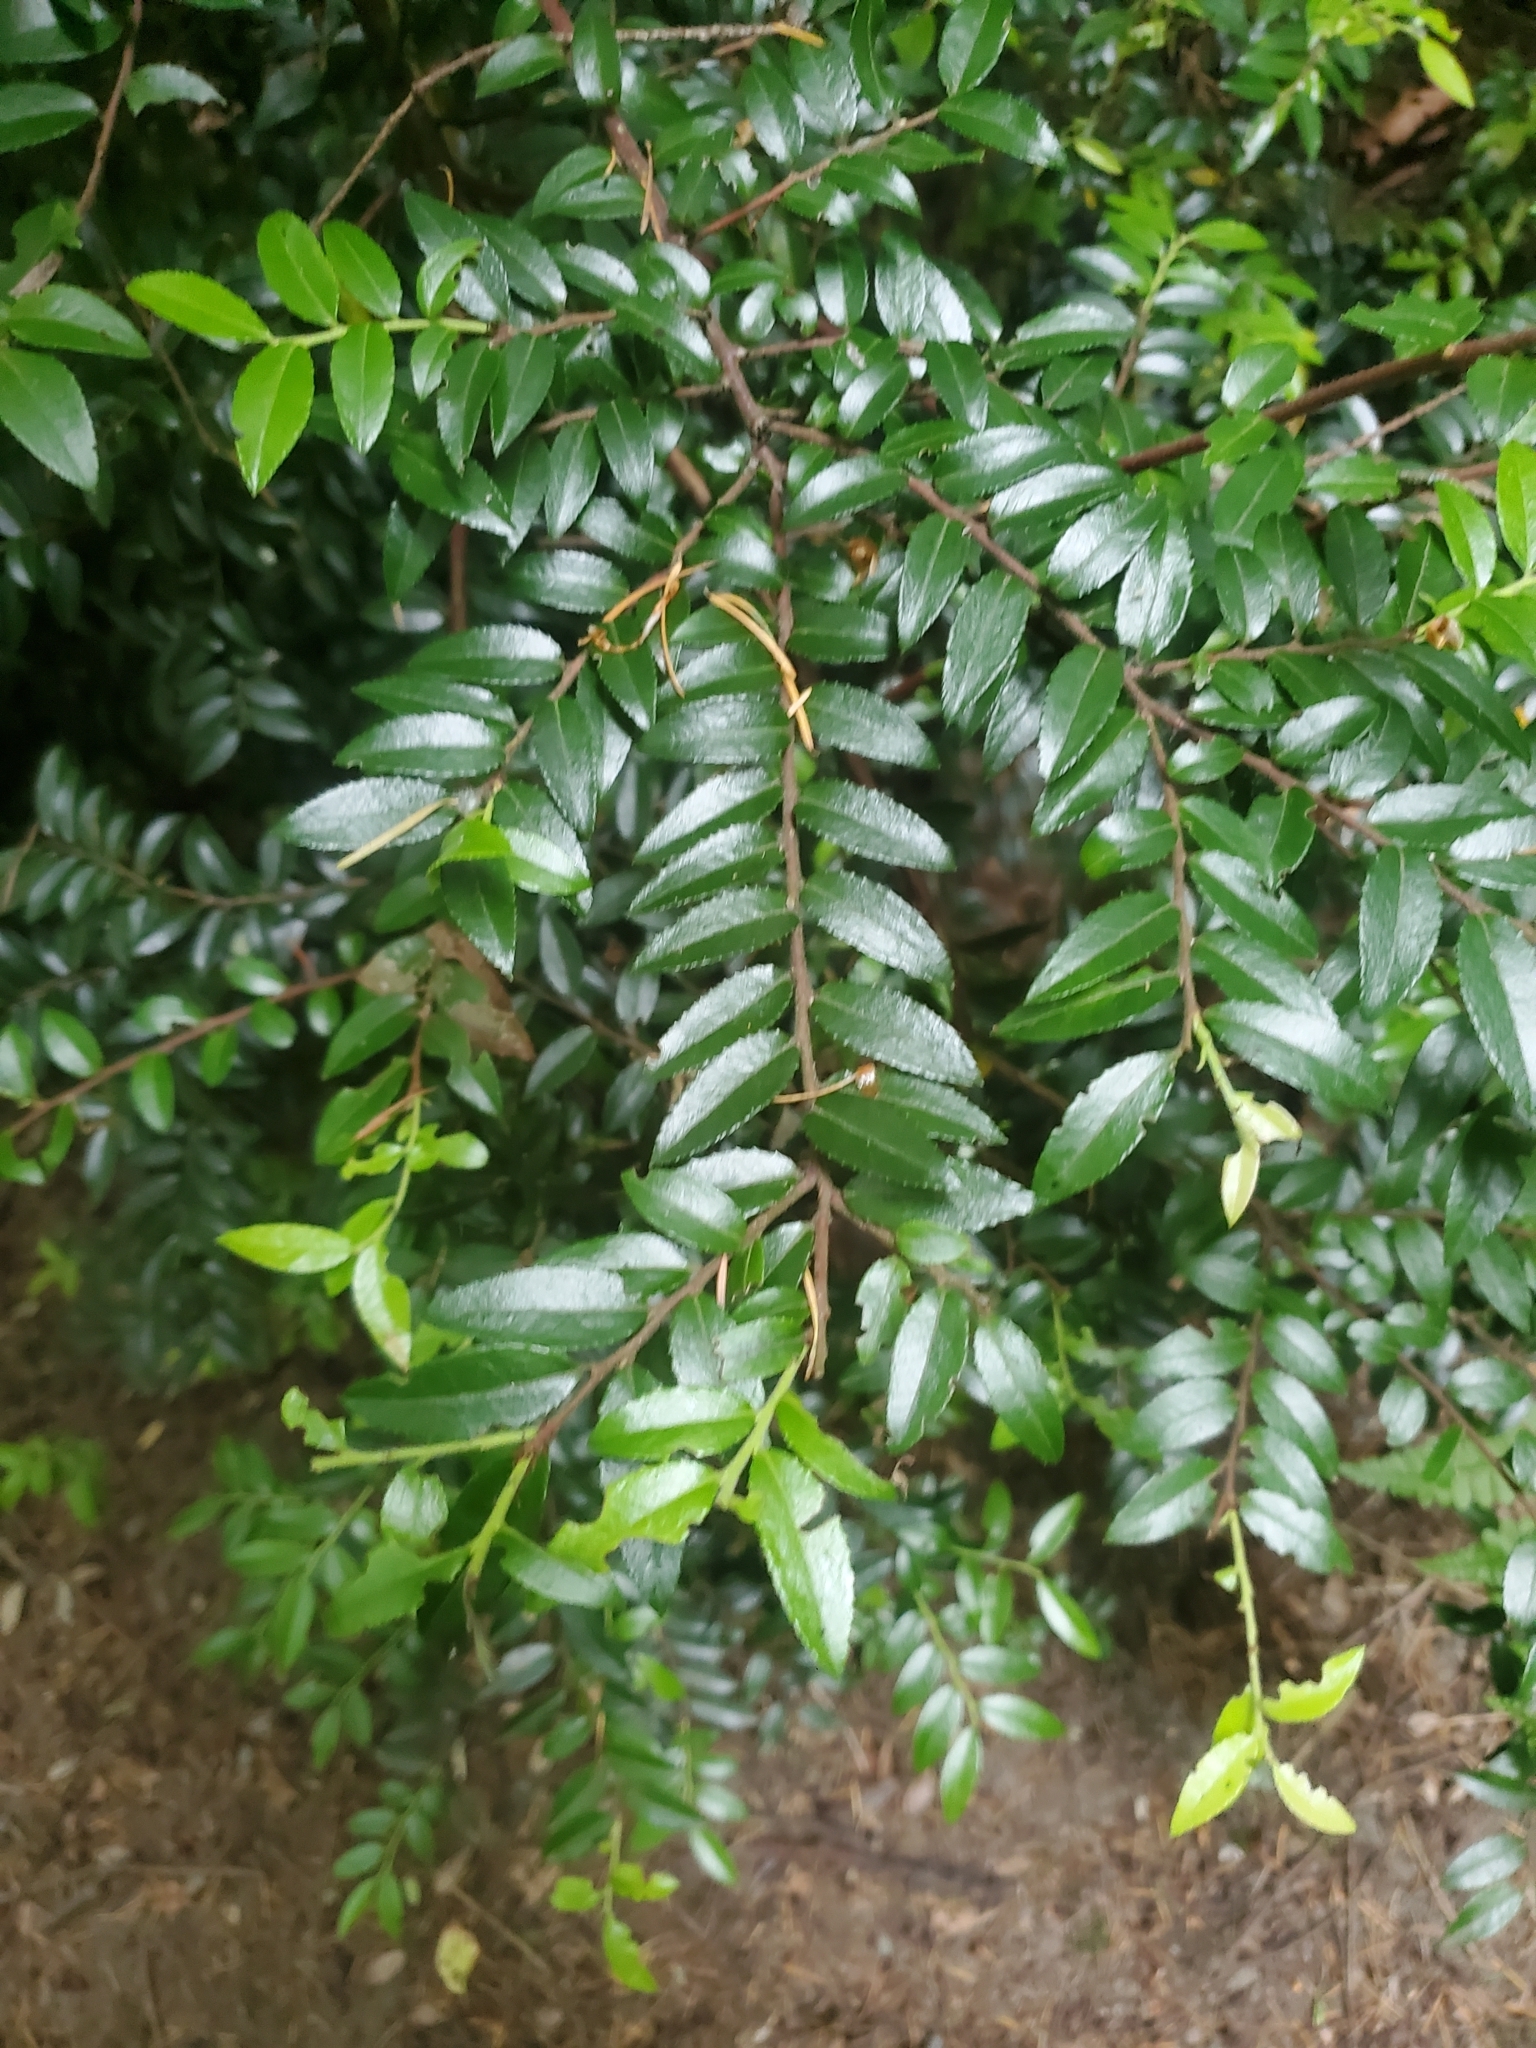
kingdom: Plantae
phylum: Tracheophyta
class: Magnoliopsida
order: Ericales
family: Ericaceae
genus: Vaccinium
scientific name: Vaccinium ovatum
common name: California-huckleberry
